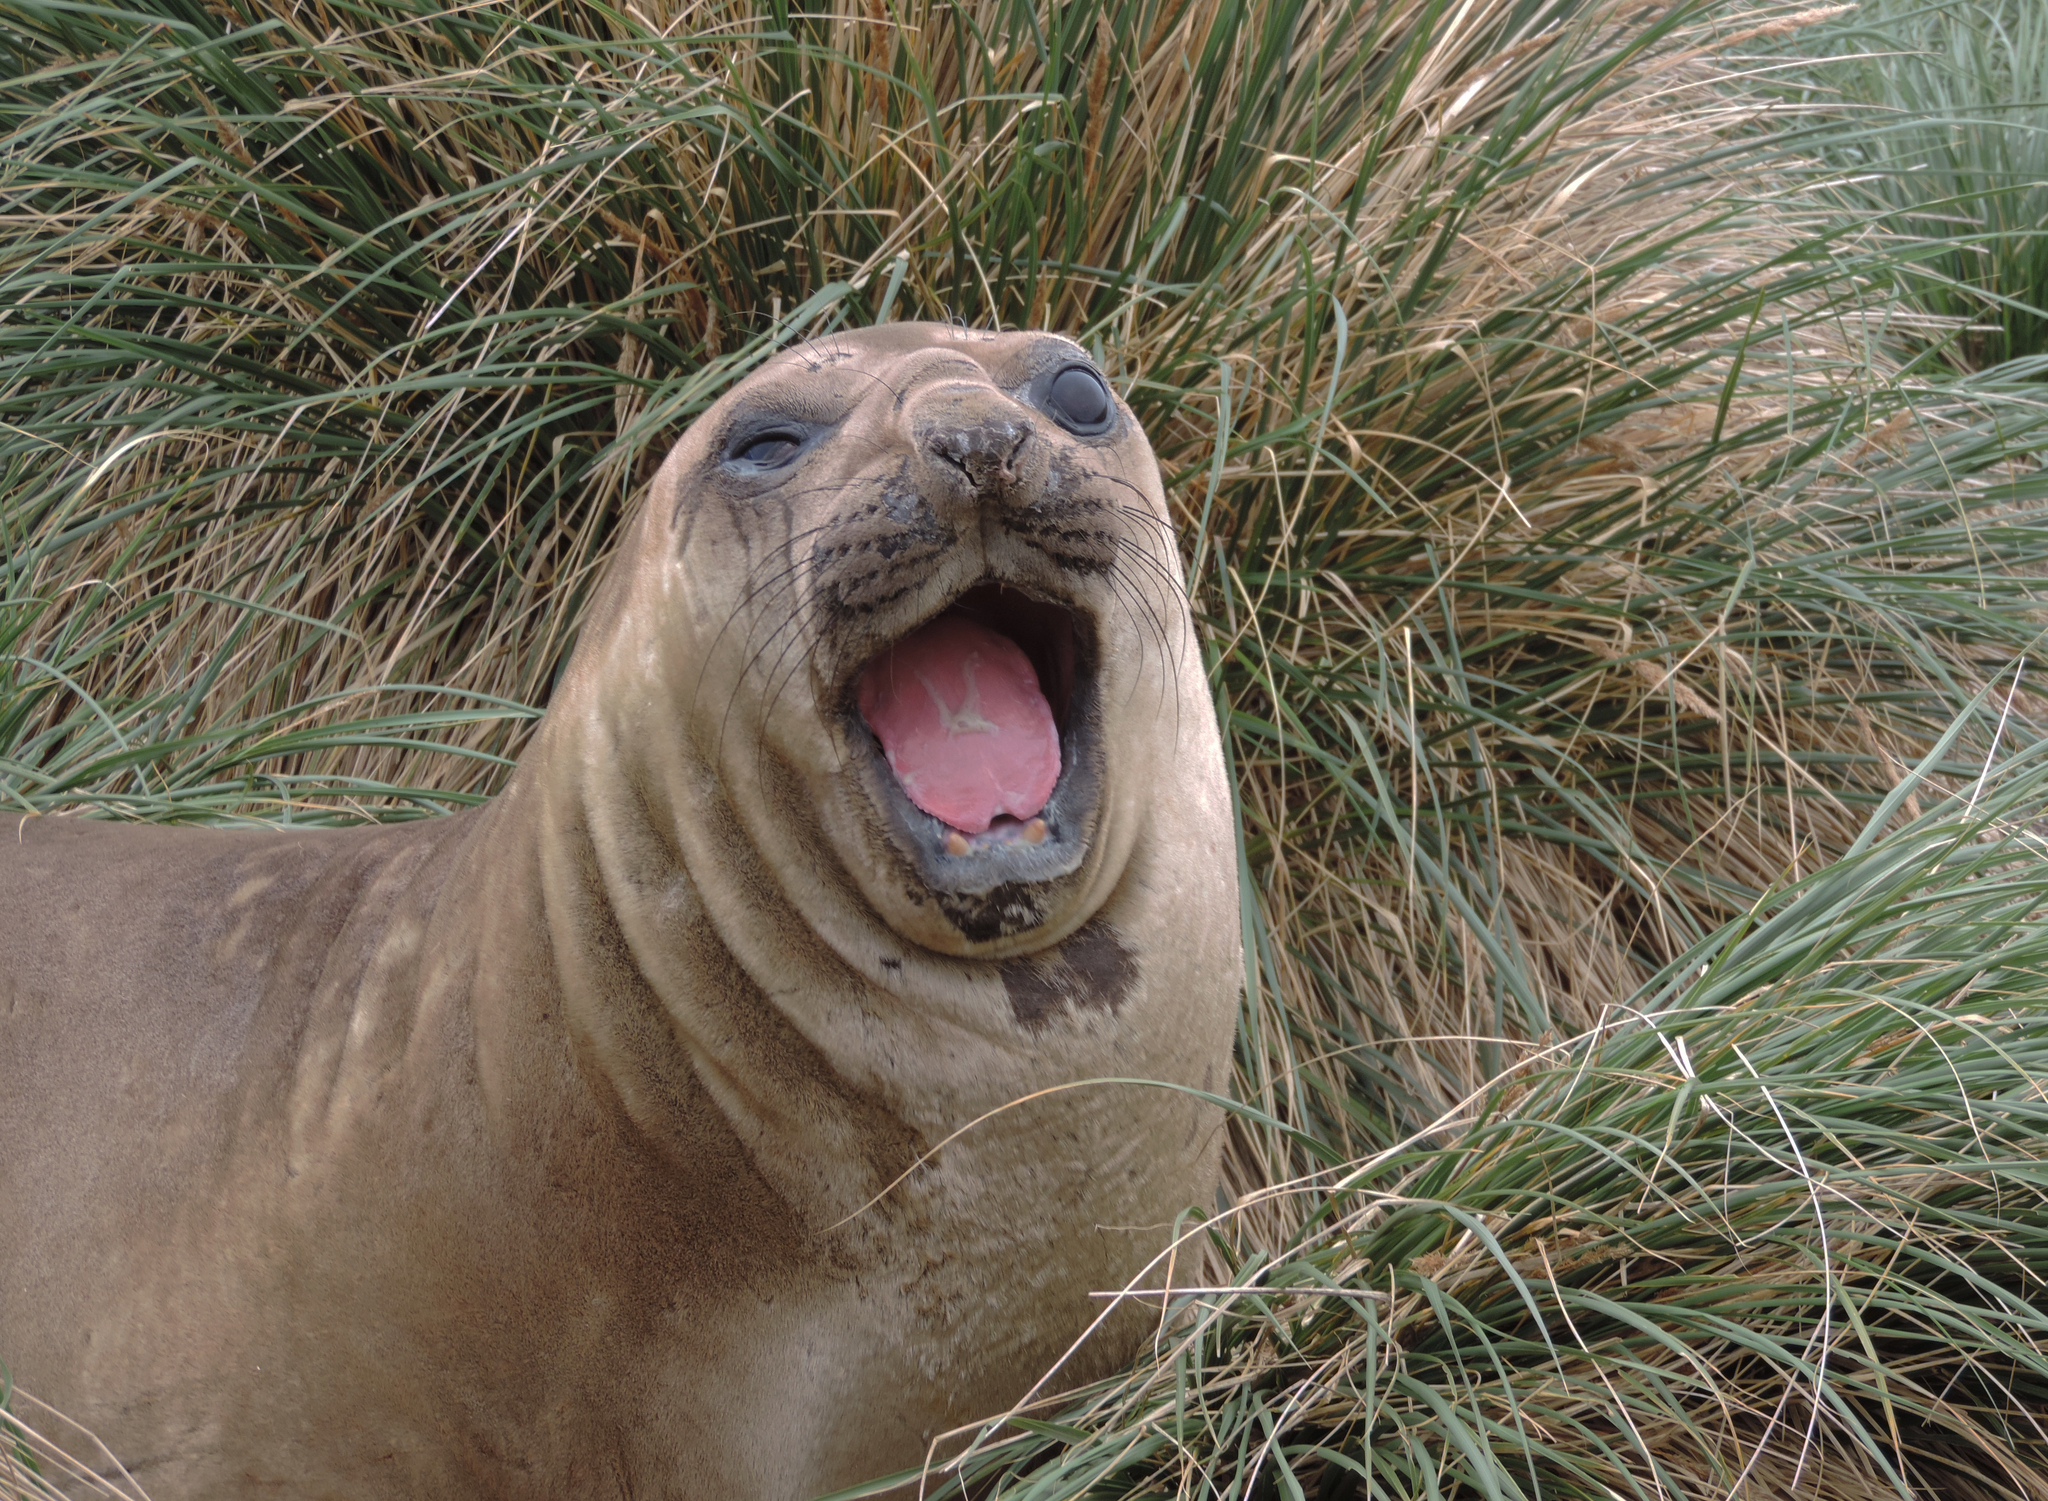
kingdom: Animalia
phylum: Chordata
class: Mammalia
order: Carnivora
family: Phocidae
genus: Mirounga
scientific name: Mirounga leonina
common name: Southern elephant seal
